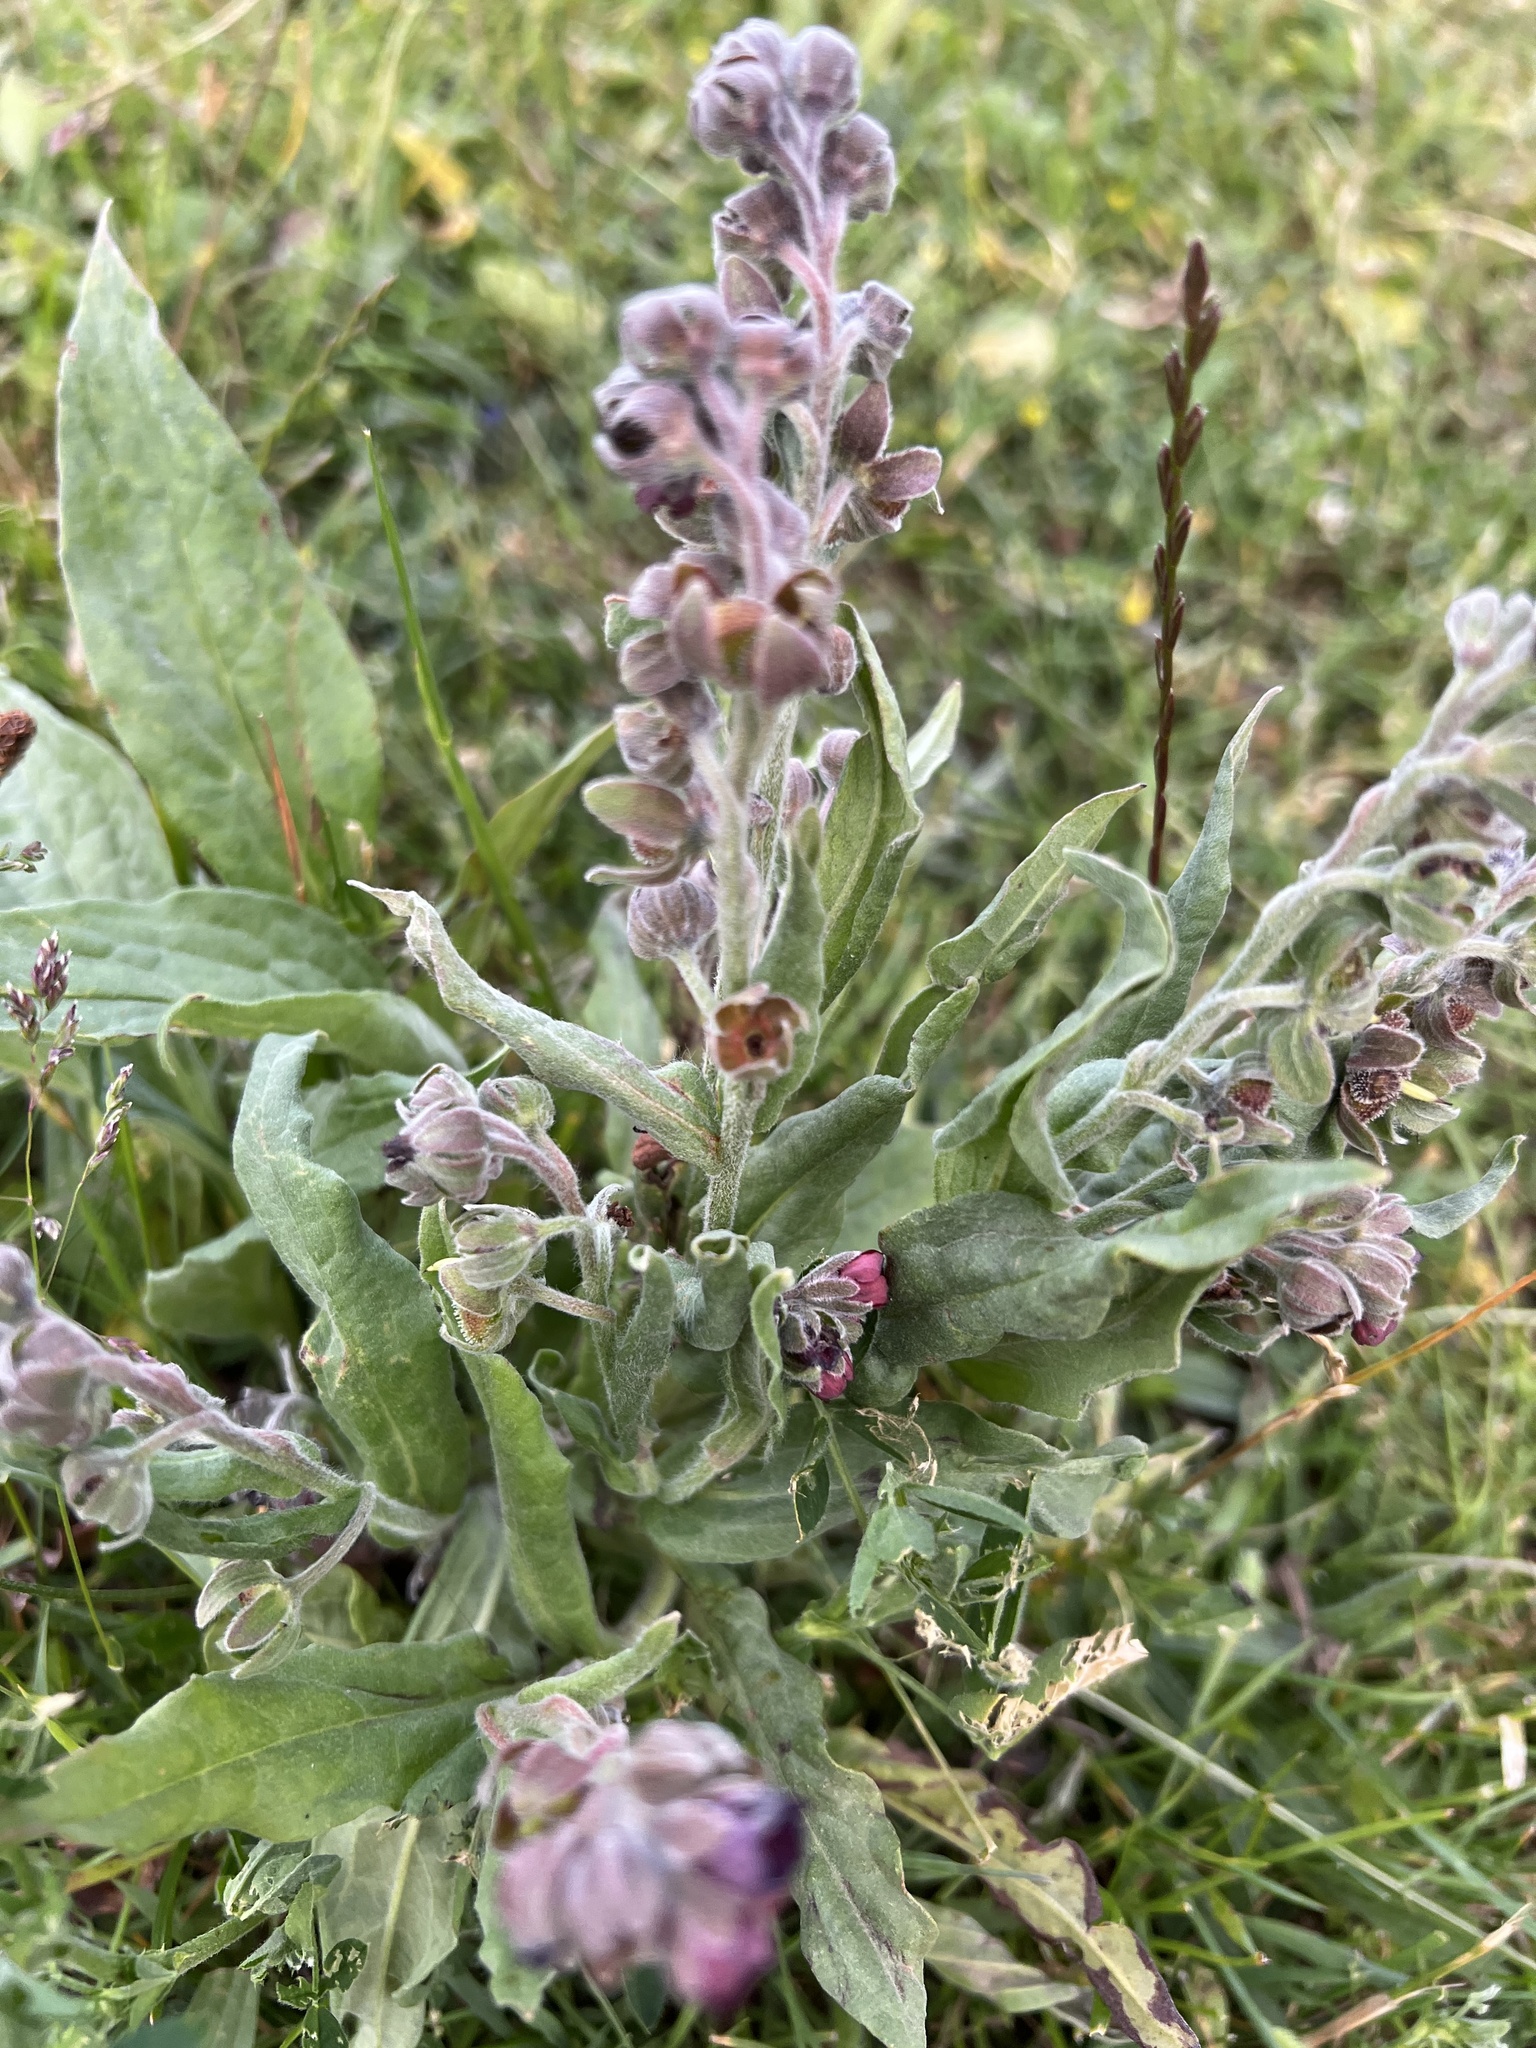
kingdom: Plantae
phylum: Tracheophyta
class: Magnoliopsida
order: Boraginales
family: Boraginaceae
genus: Cynoglossum
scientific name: Cynoglossum officinale
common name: Hound's-tongue
